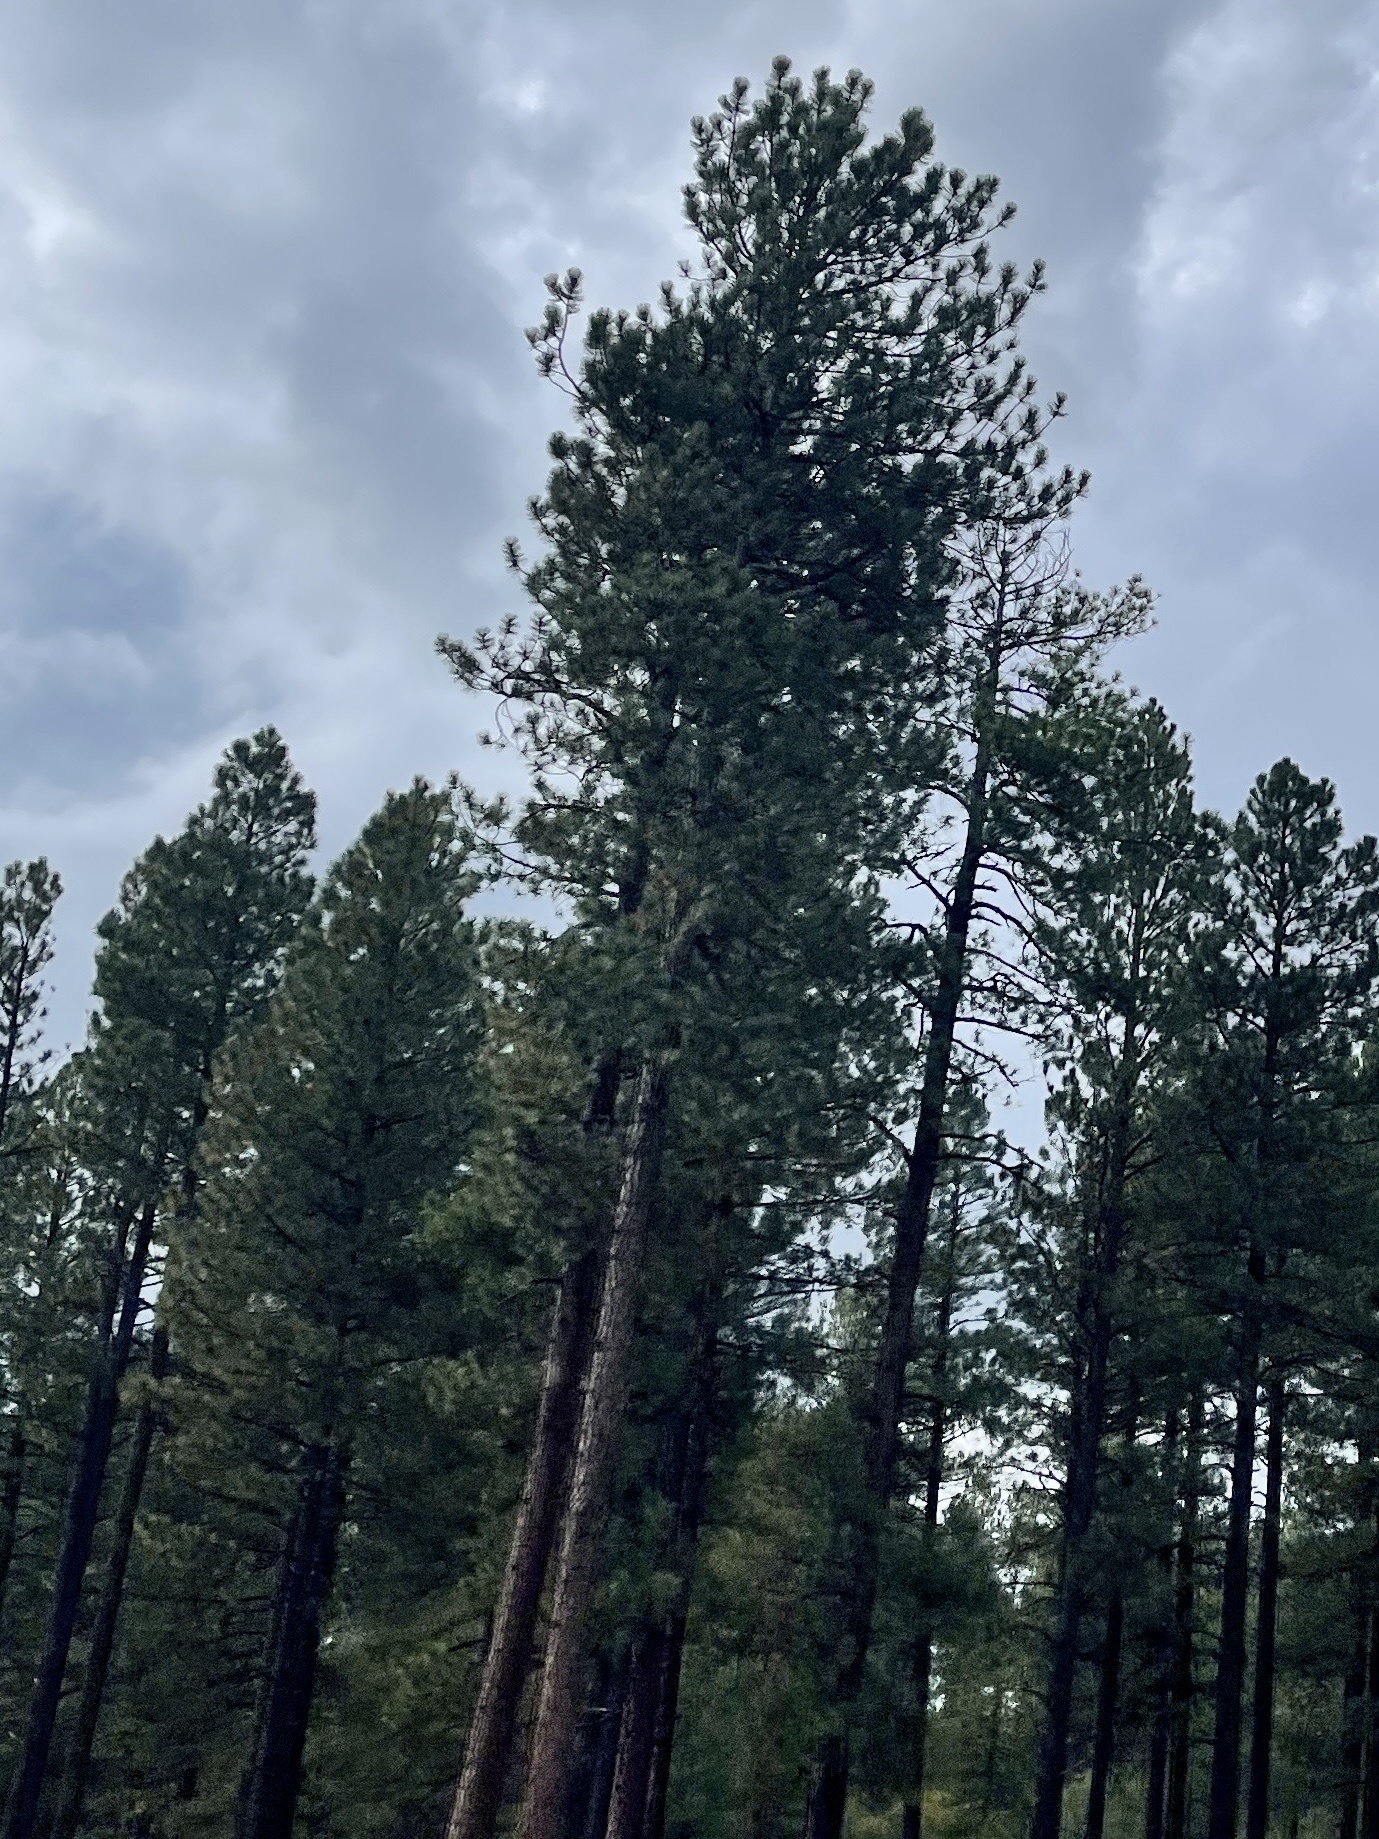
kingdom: Plantae
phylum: Tracheophyta
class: Pinopsida
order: Pinales
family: Pinaceae
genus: Pinus
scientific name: Pinus ponderosa
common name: Western yellow-pine
